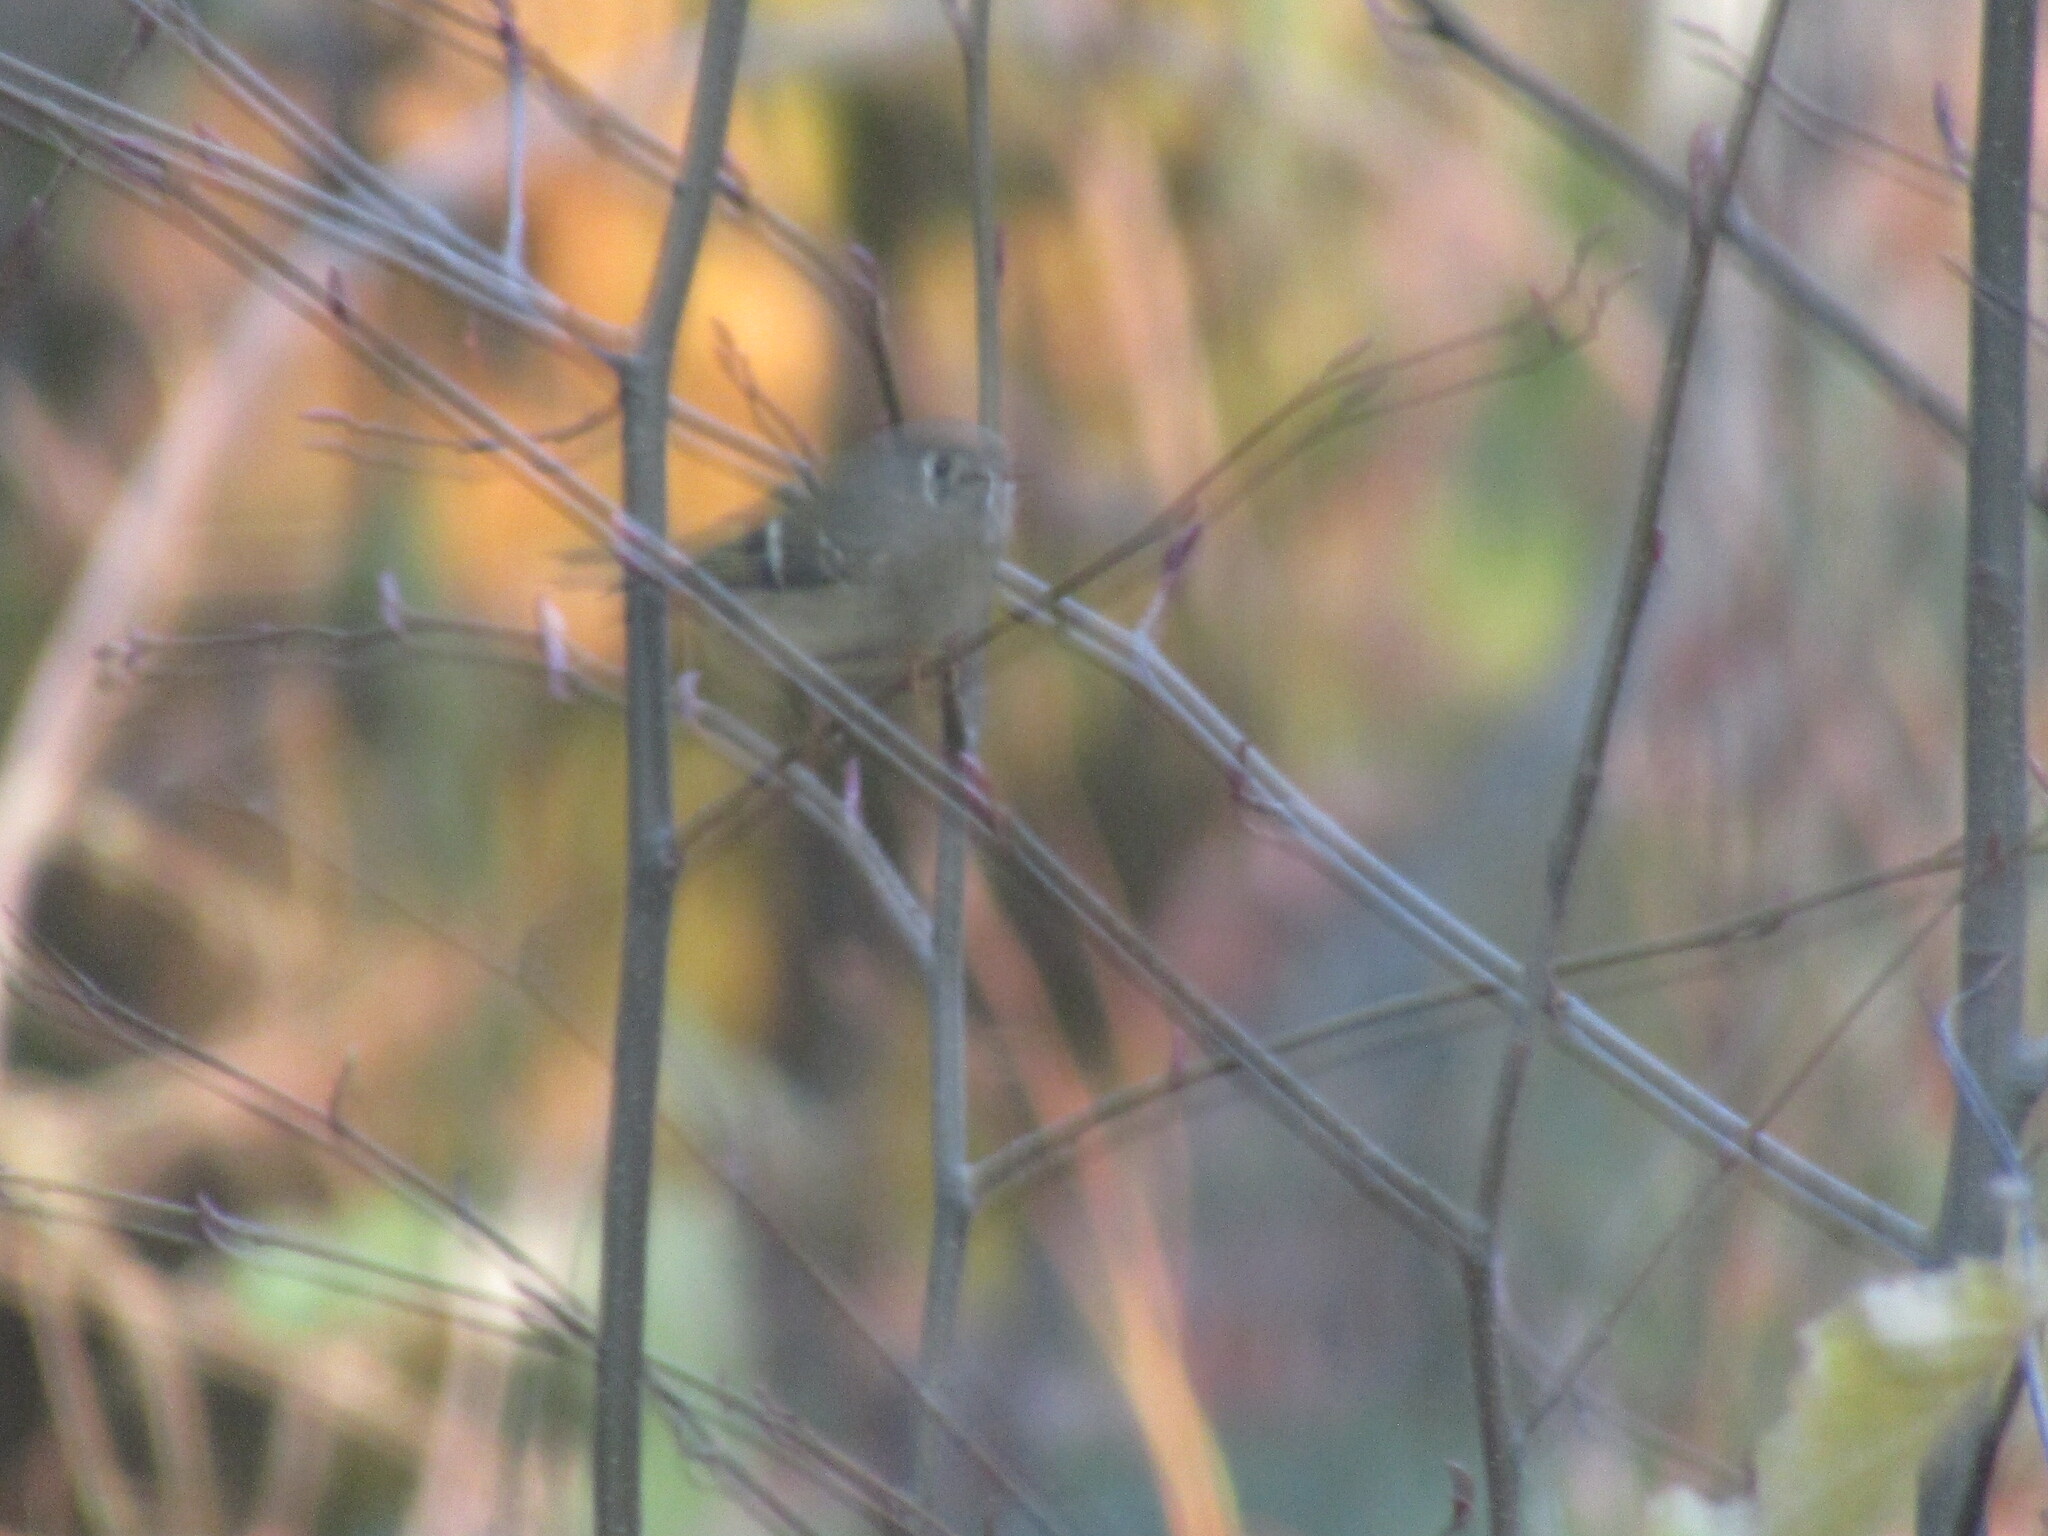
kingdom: Animalia
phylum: Chordata
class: Aves
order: Passeriformes
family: Regulidae
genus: Regulus
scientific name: Regulus calendula
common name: Ruby-crowned kinglet
